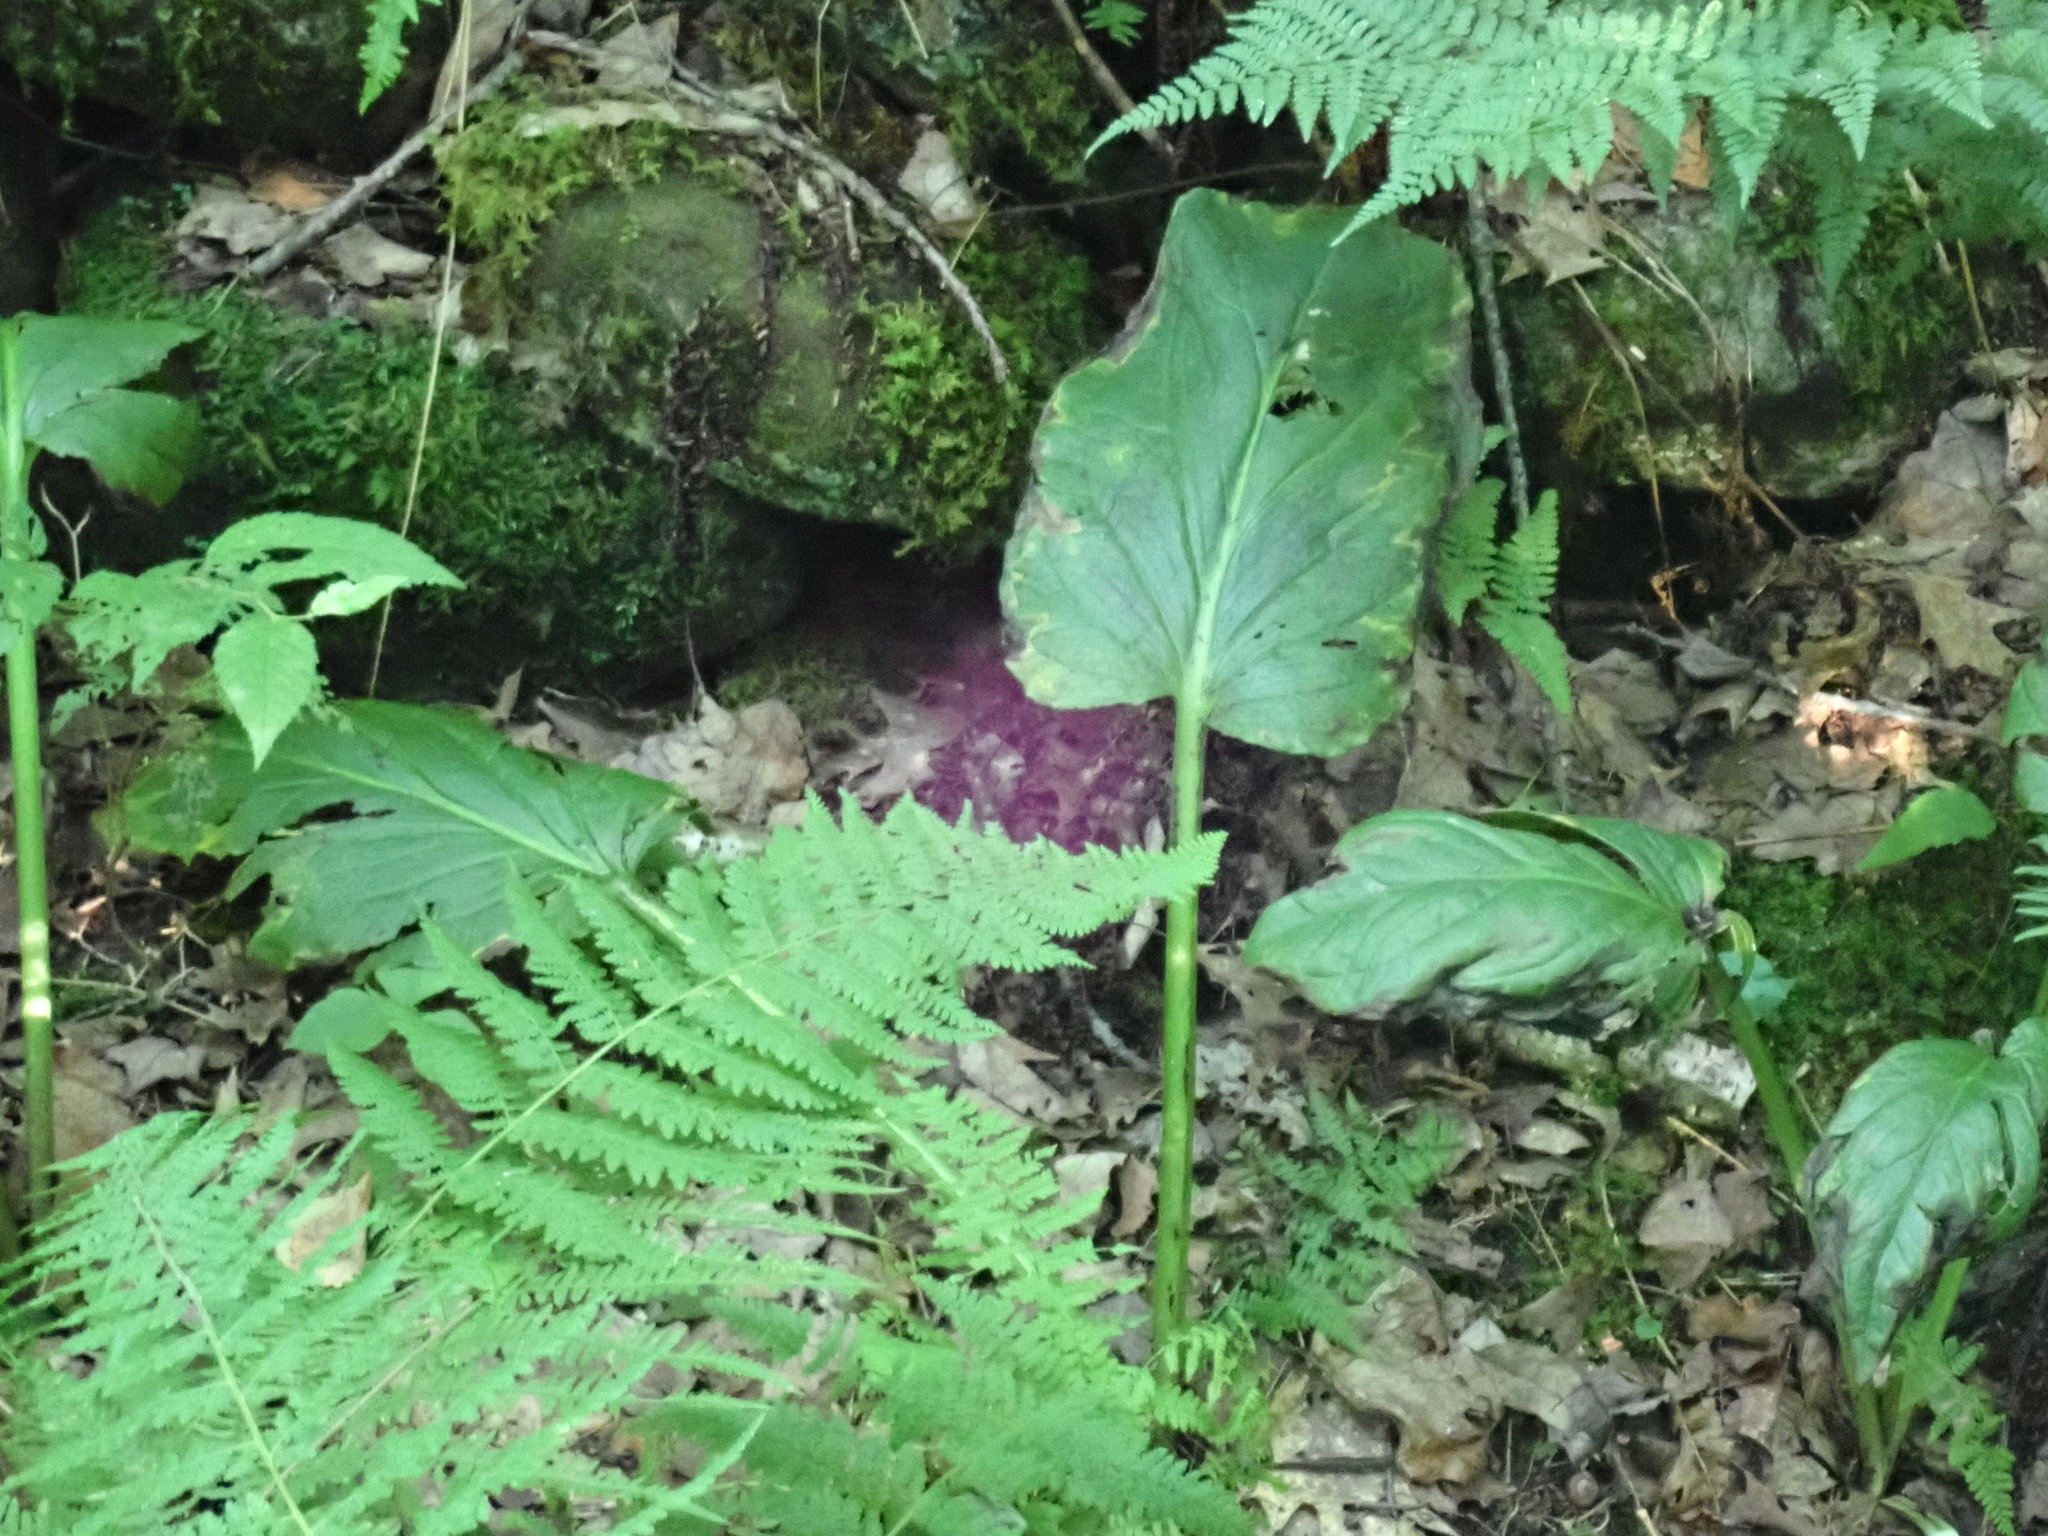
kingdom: Plantae
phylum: Tracheophyta
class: Liliopsida
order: Alismatales
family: Araceae
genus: Symplocarpus
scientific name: Symplocarpus foetidus
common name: Eastern skunk cabbage
